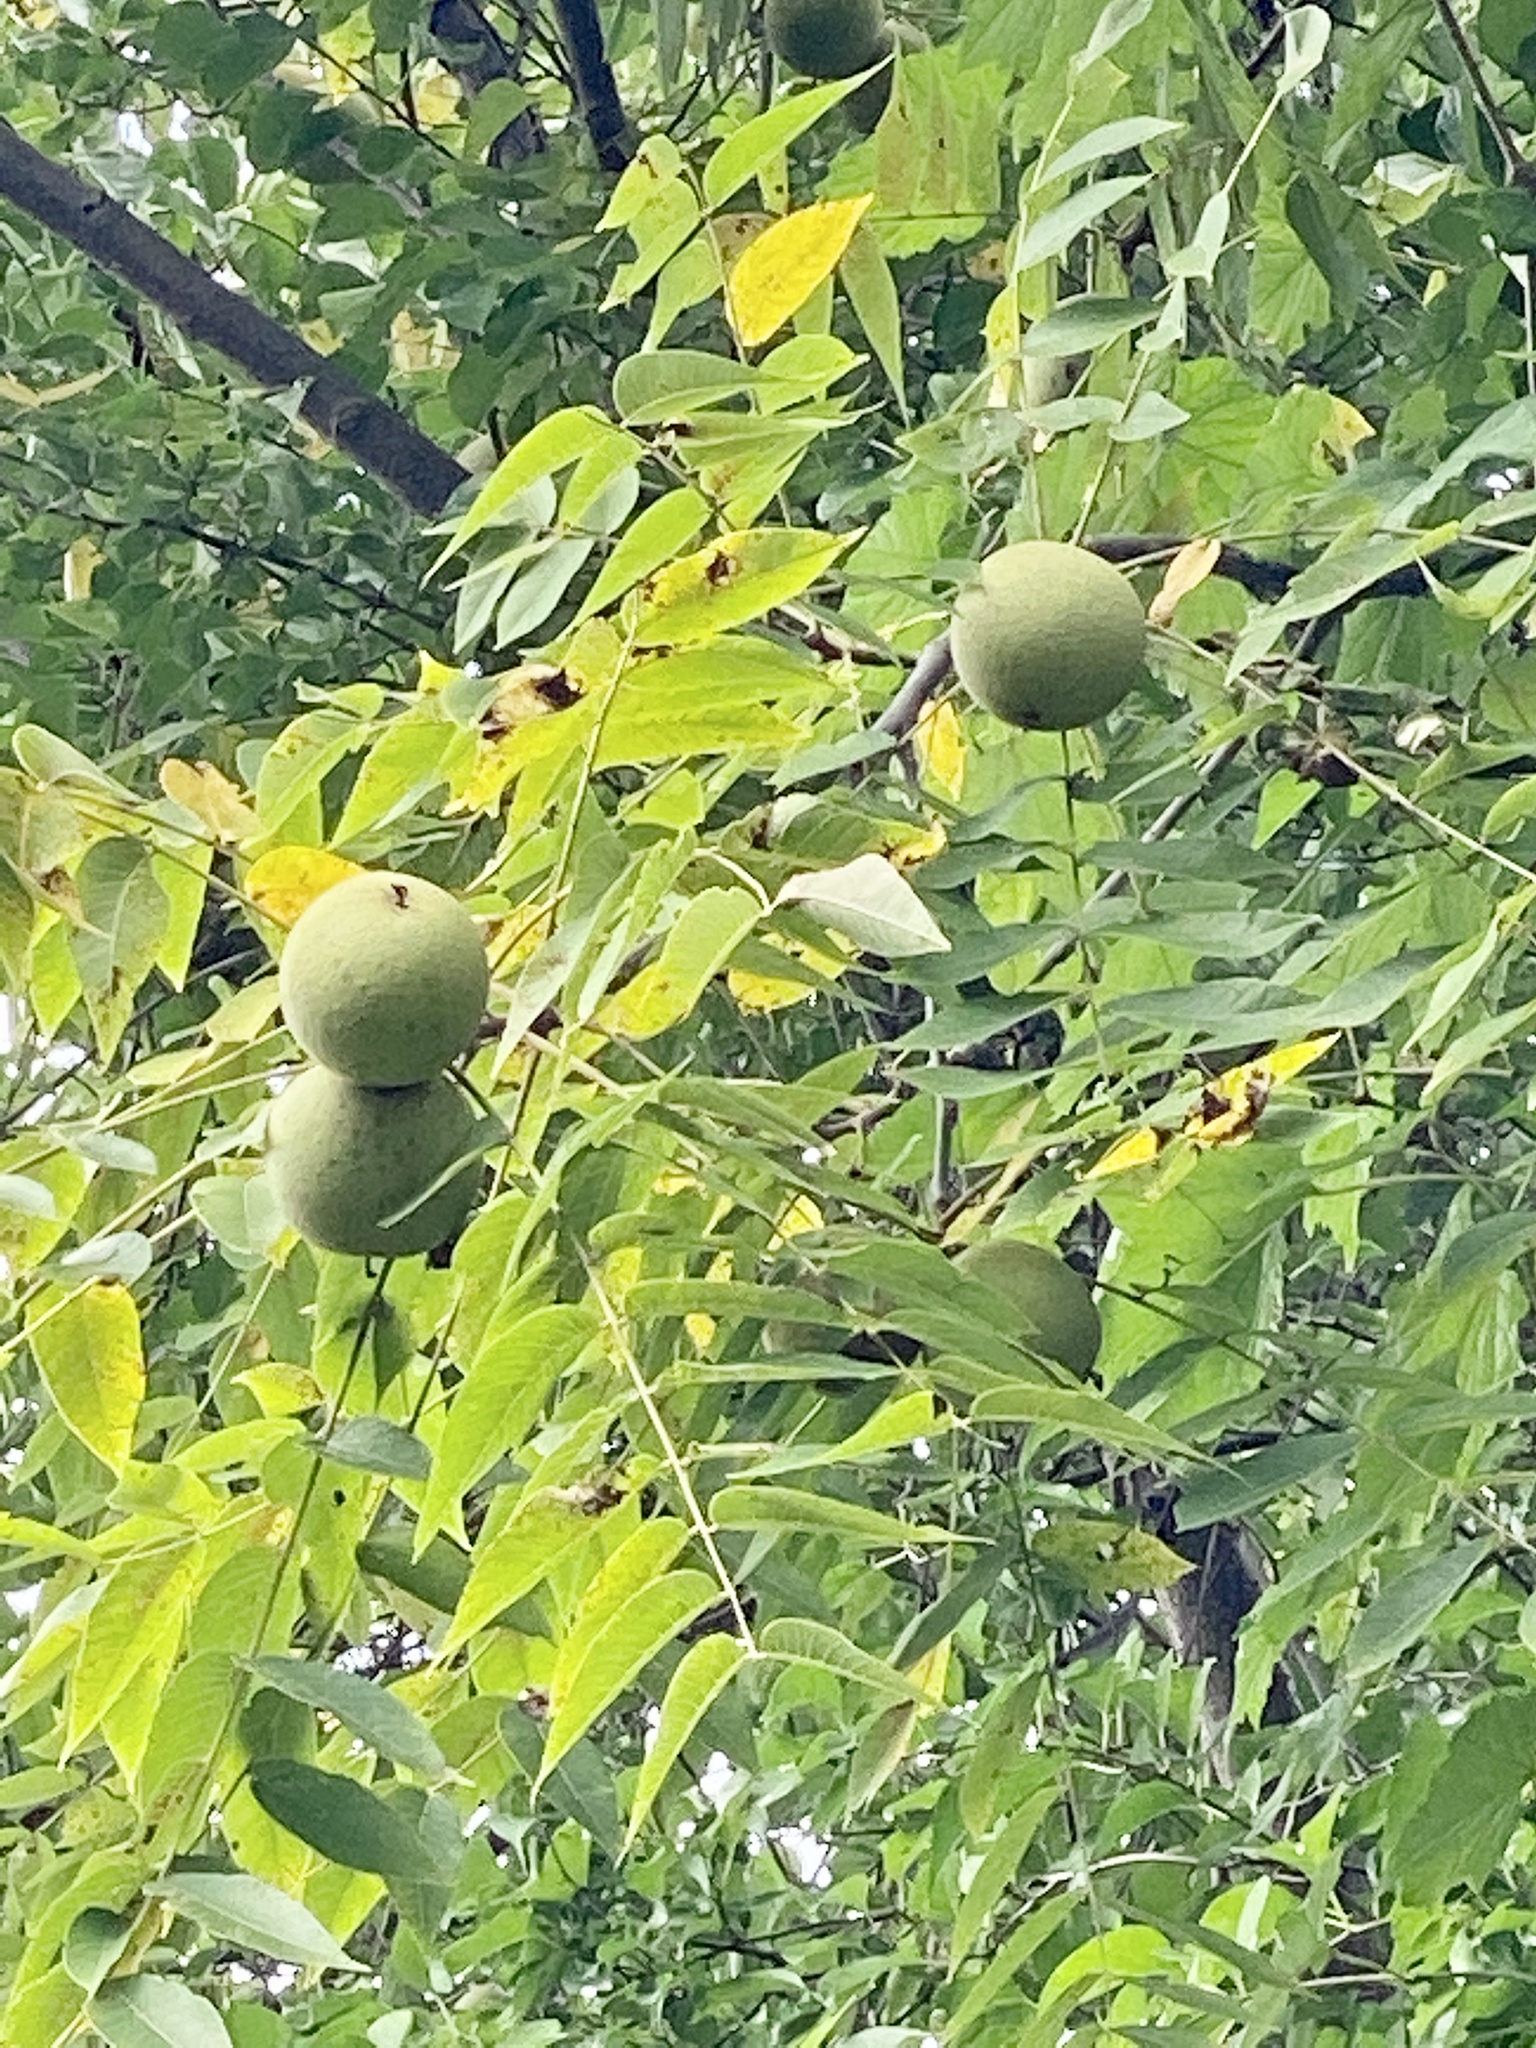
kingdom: Plantae
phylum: Tracheophyta
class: Magnoliopsida
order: Fagales
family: Juglandaceae
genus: Juglans
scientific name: Juglans nigra
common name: Black walnut
